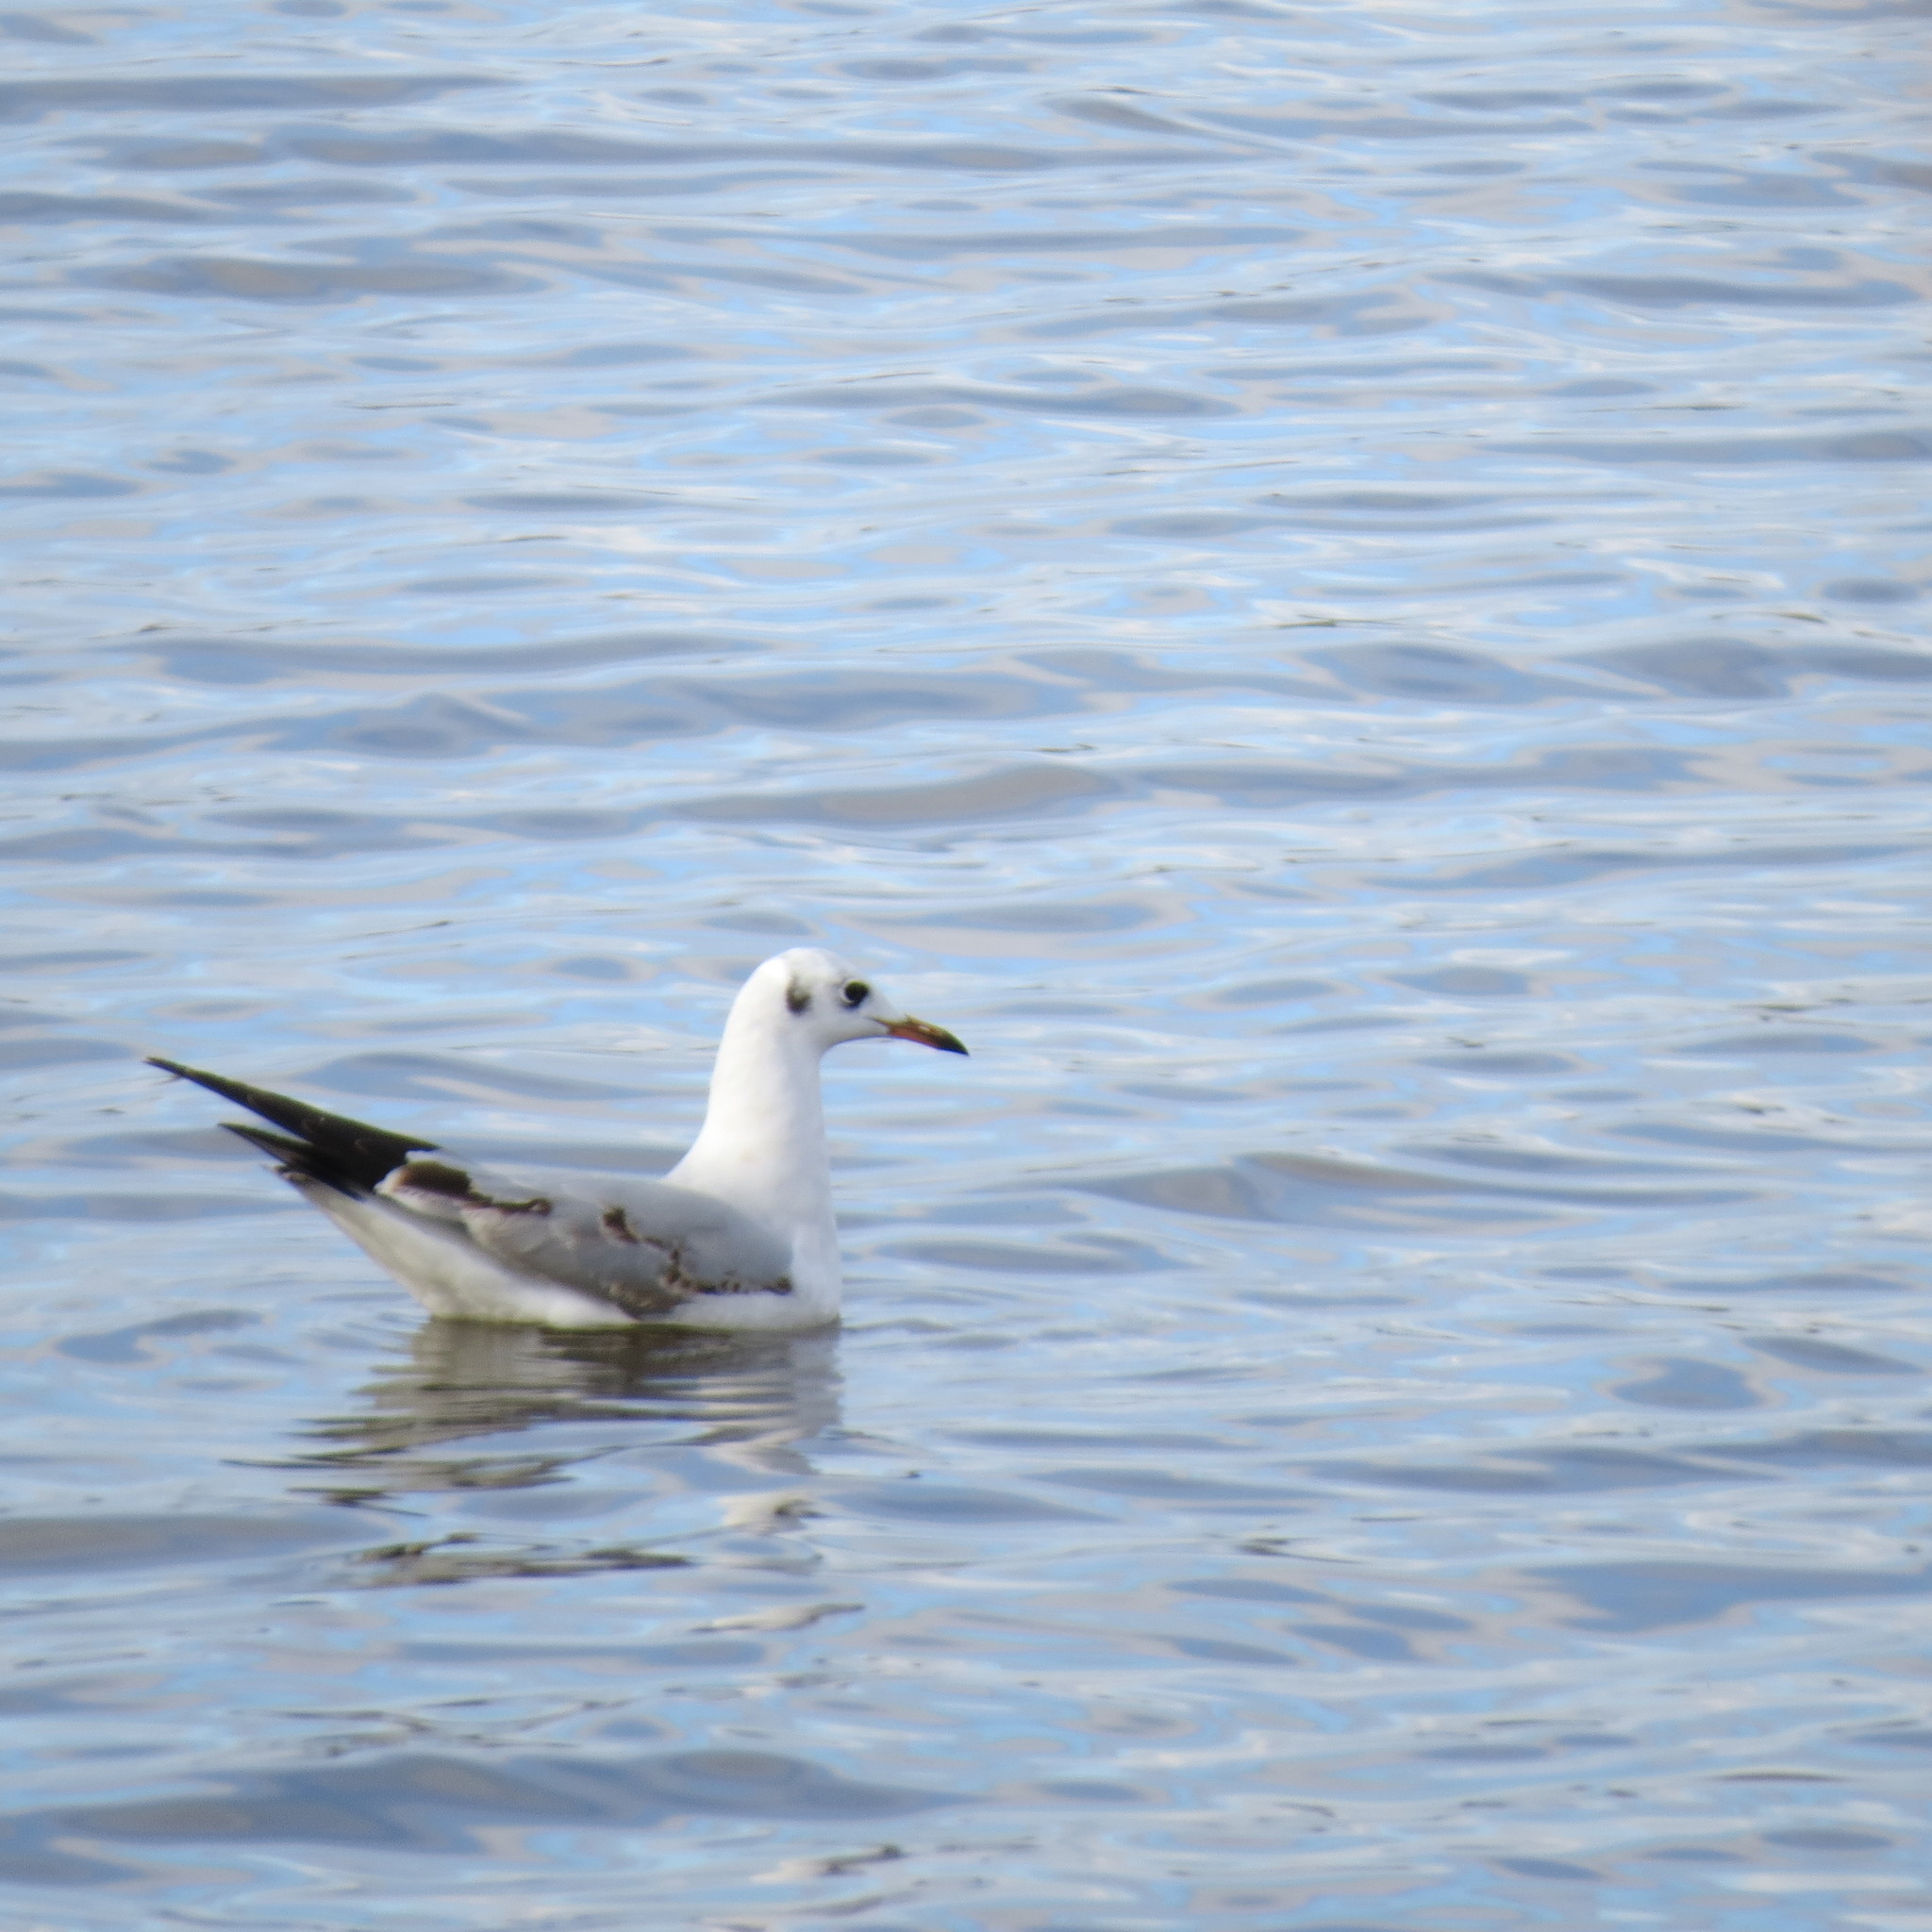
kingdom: Animalia
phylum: Chordata
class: Aves
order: Charadriiformes
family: Laridae
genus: Chroicocephalus
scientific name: Chroicocephalus ridibundus
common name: Black-headed gull
